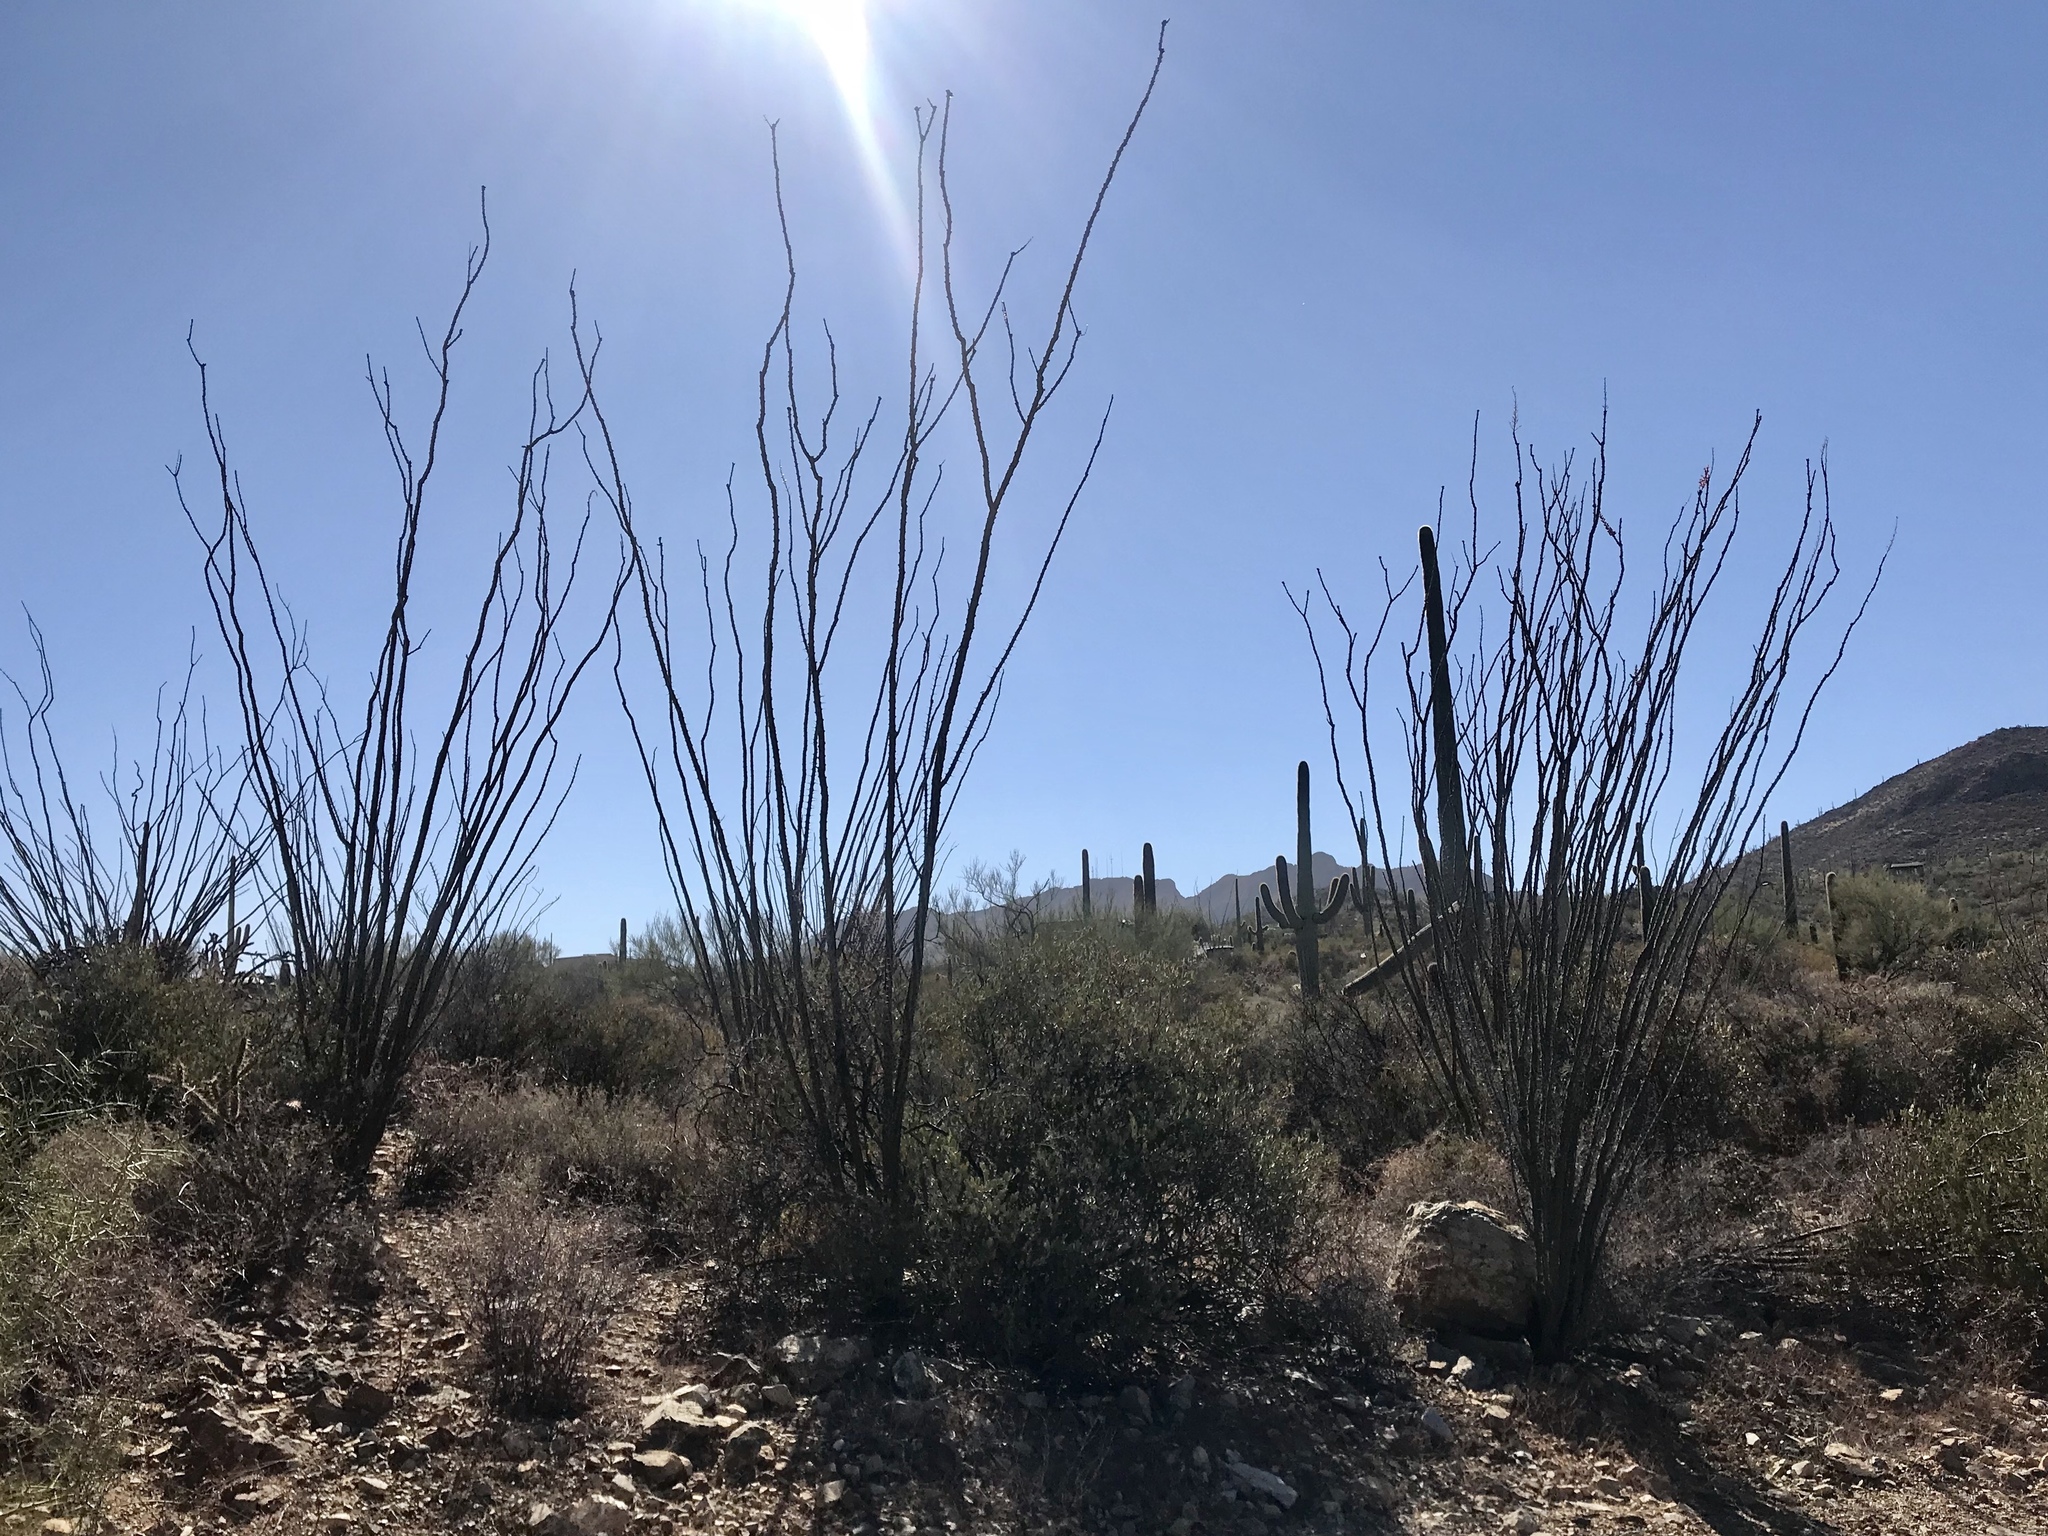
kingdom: Plantae
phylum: Tracheophyta
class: Magnoliopsida
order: Ericales
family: Fouquieriaceae
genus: Fouquieria
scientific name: Fouquieria splendens
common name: Vine-cactus
